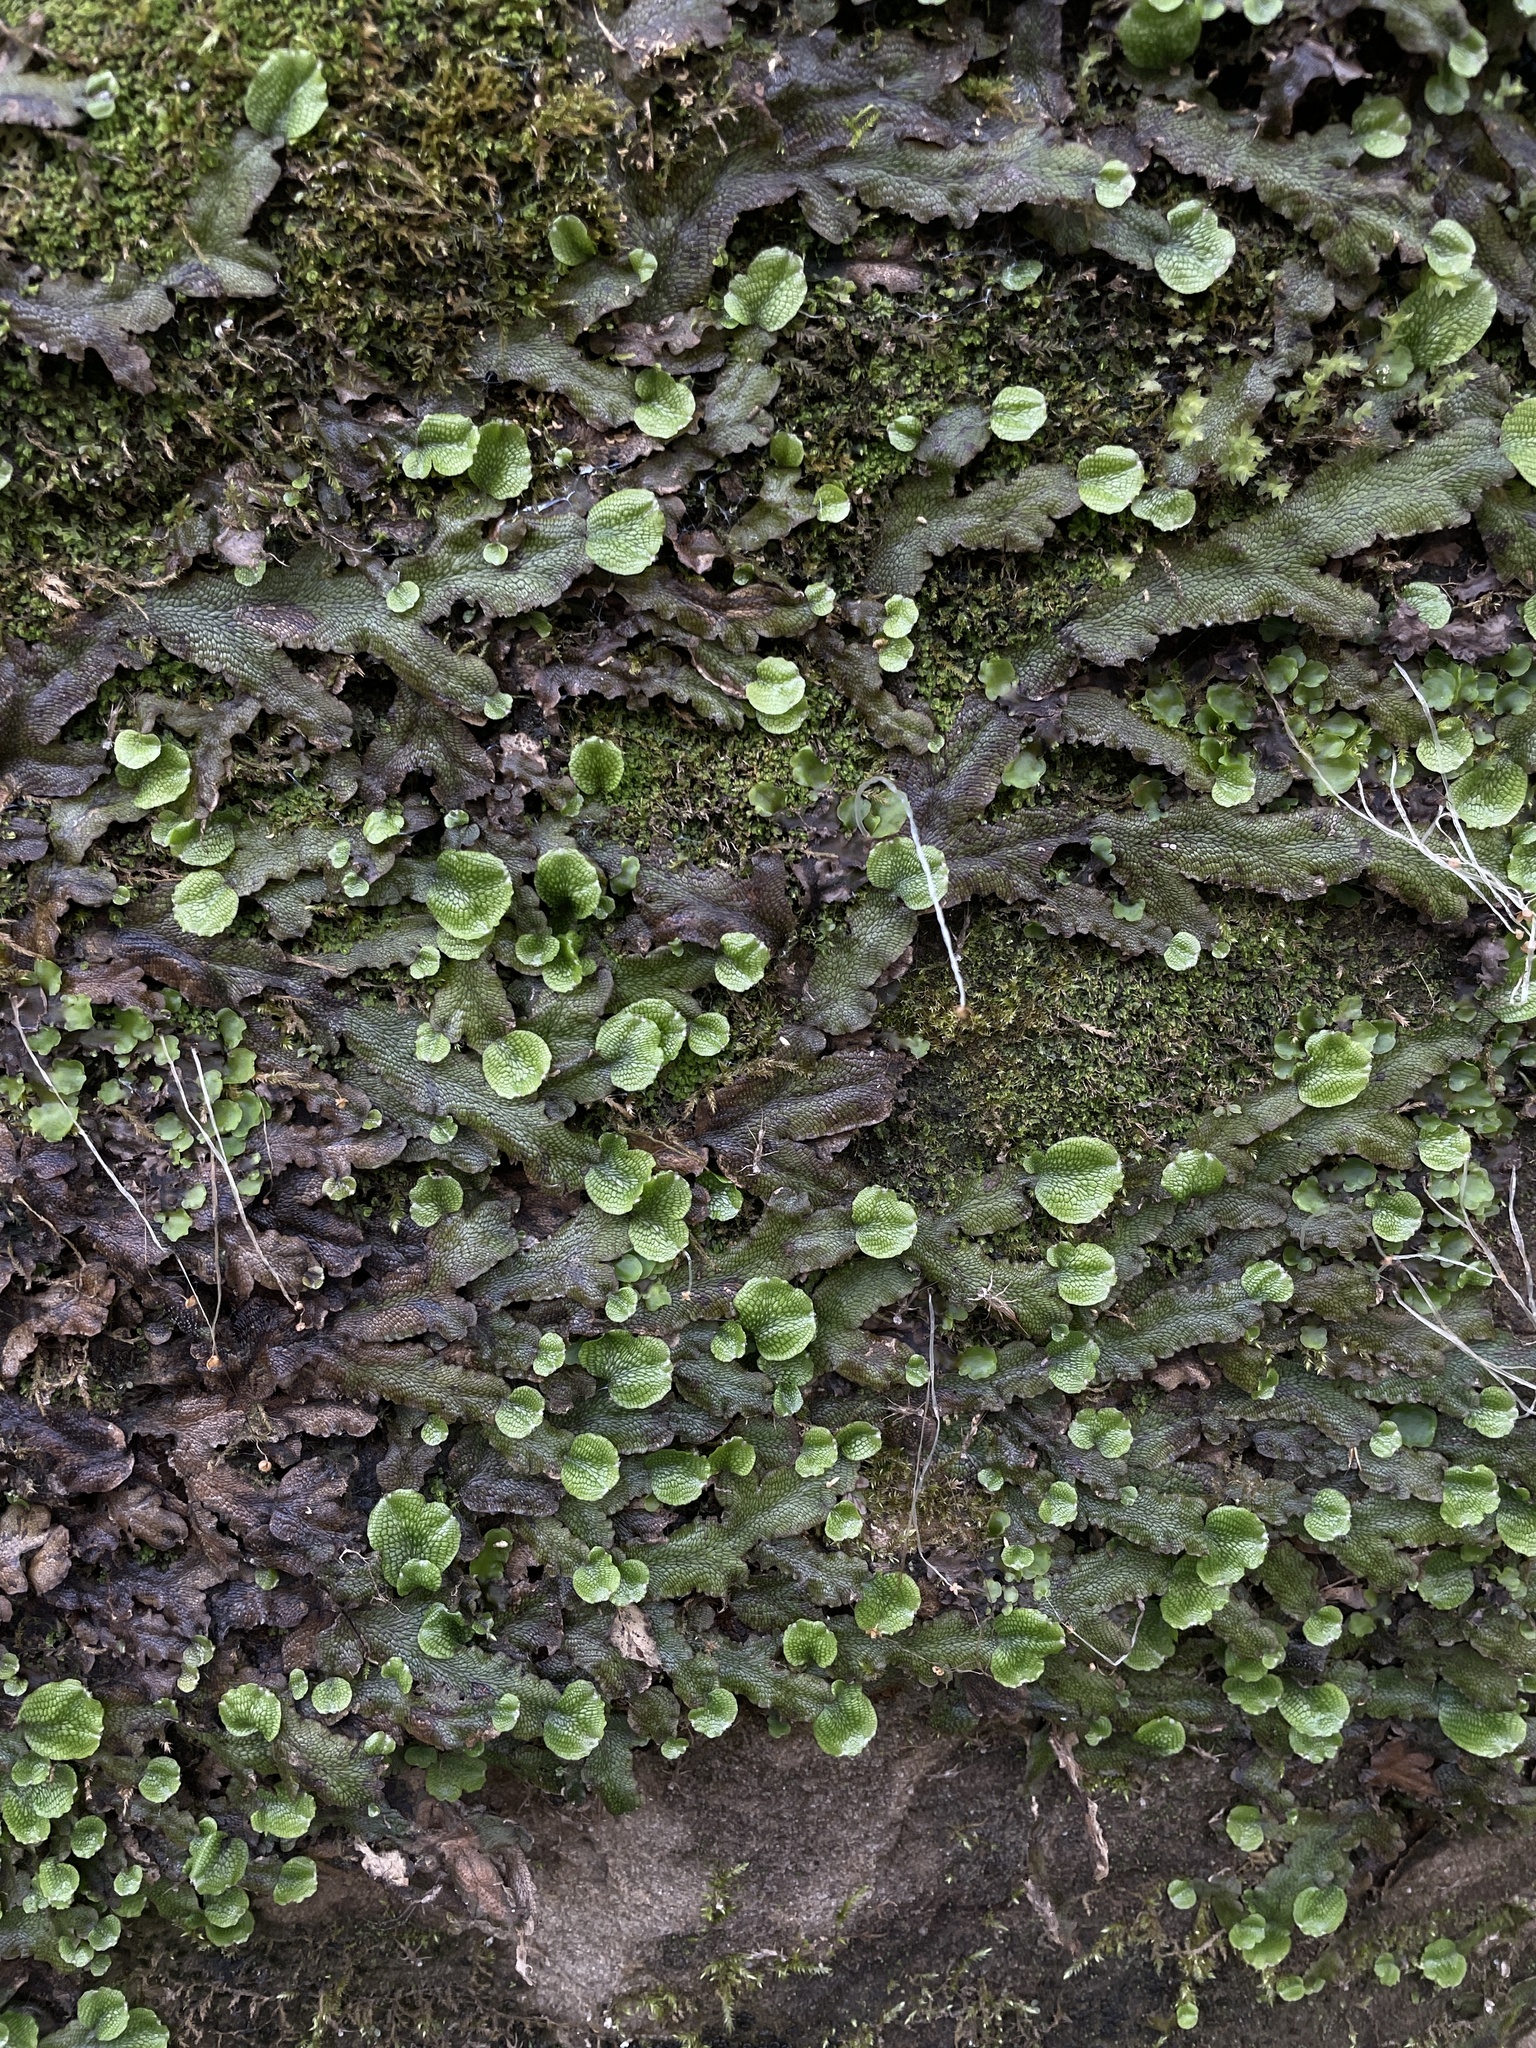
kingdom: Plantae
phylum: Marchantiophyta
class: Marchantiopsida
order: Marchantiales
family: Conocephalaceae
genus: Conocephalum
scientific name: Conocephalum salebrosum
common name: Cat-tongue liverwort
